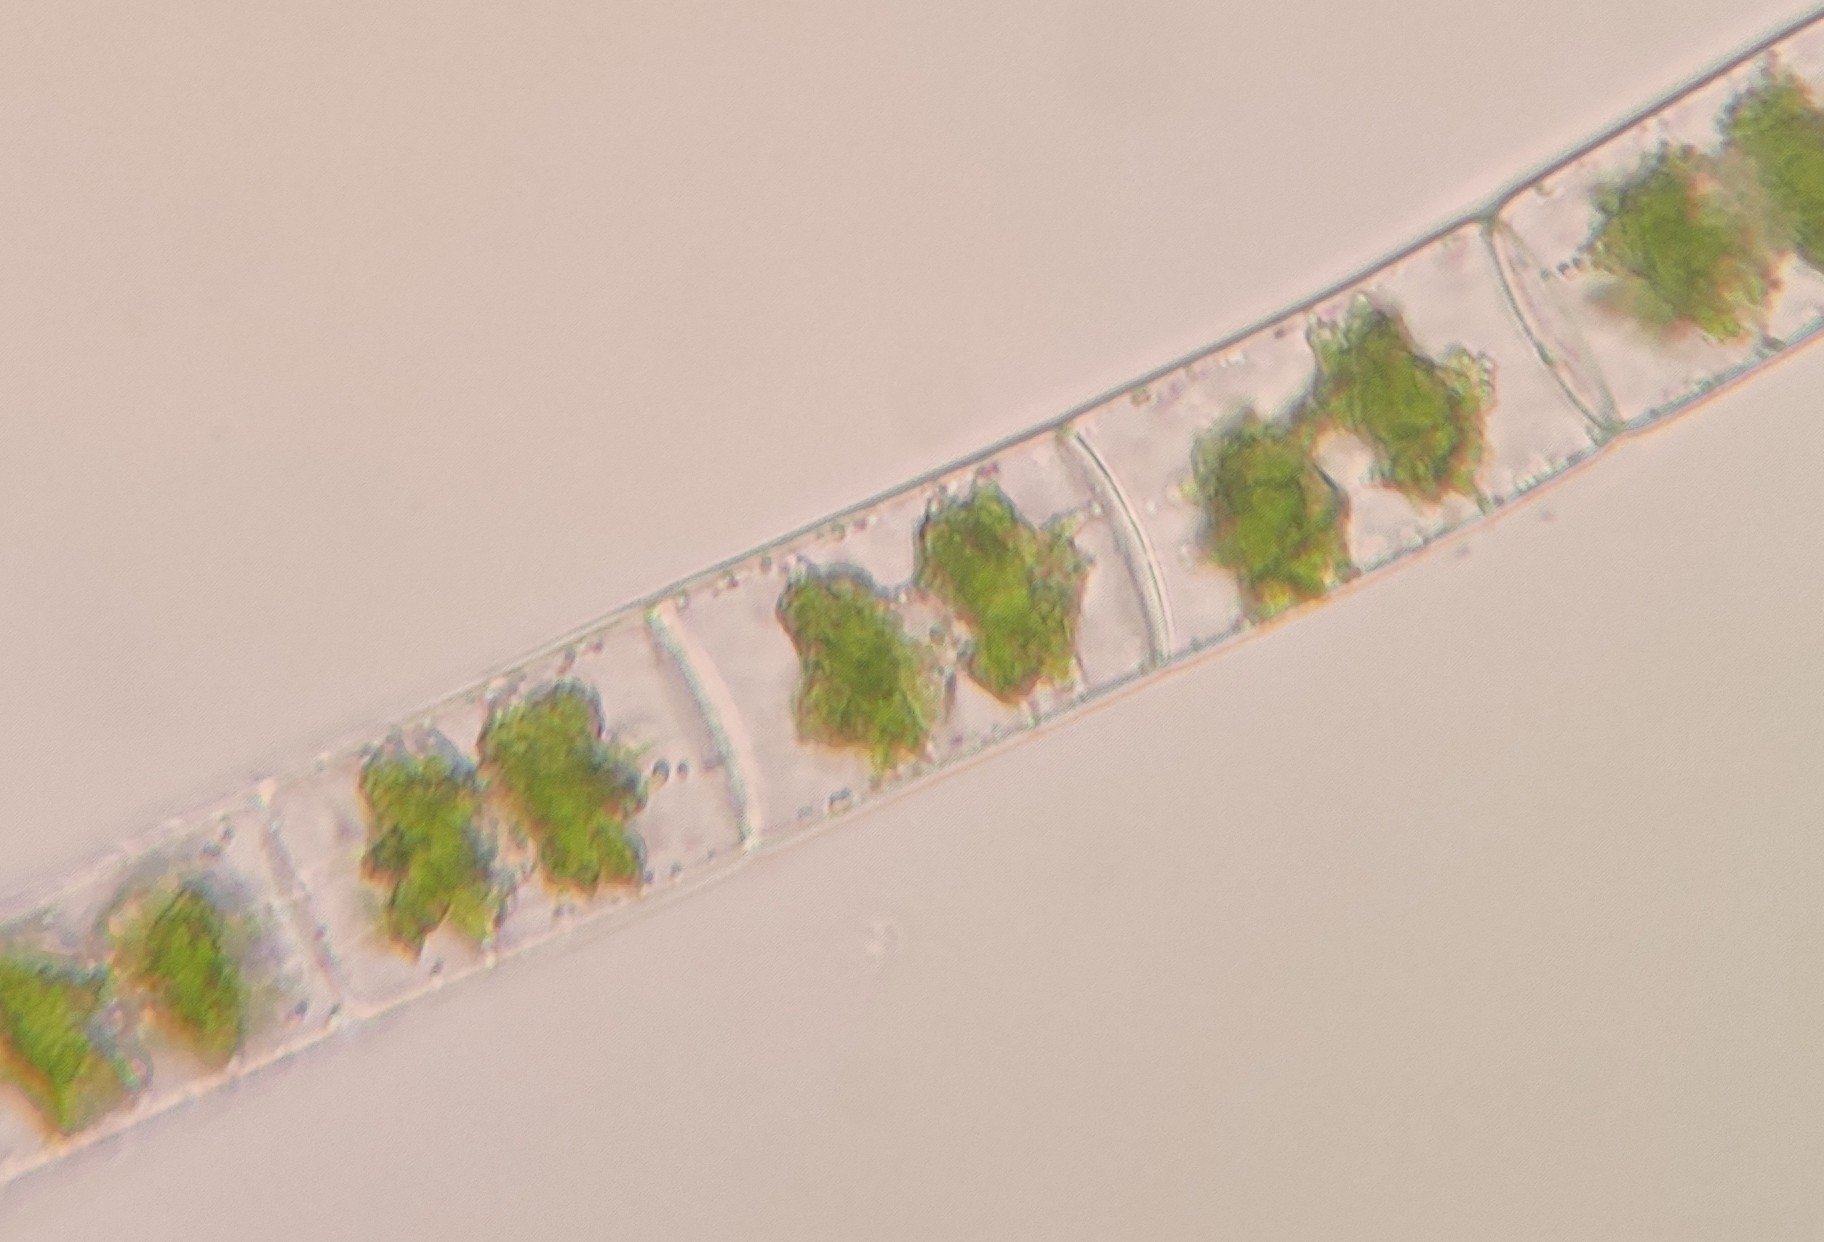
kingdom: Plantae
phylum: Charophyta
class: Zygnematophyceae
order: Zygnematales
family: Zygnemataceae
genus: Zygnema
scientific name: Zygnema
